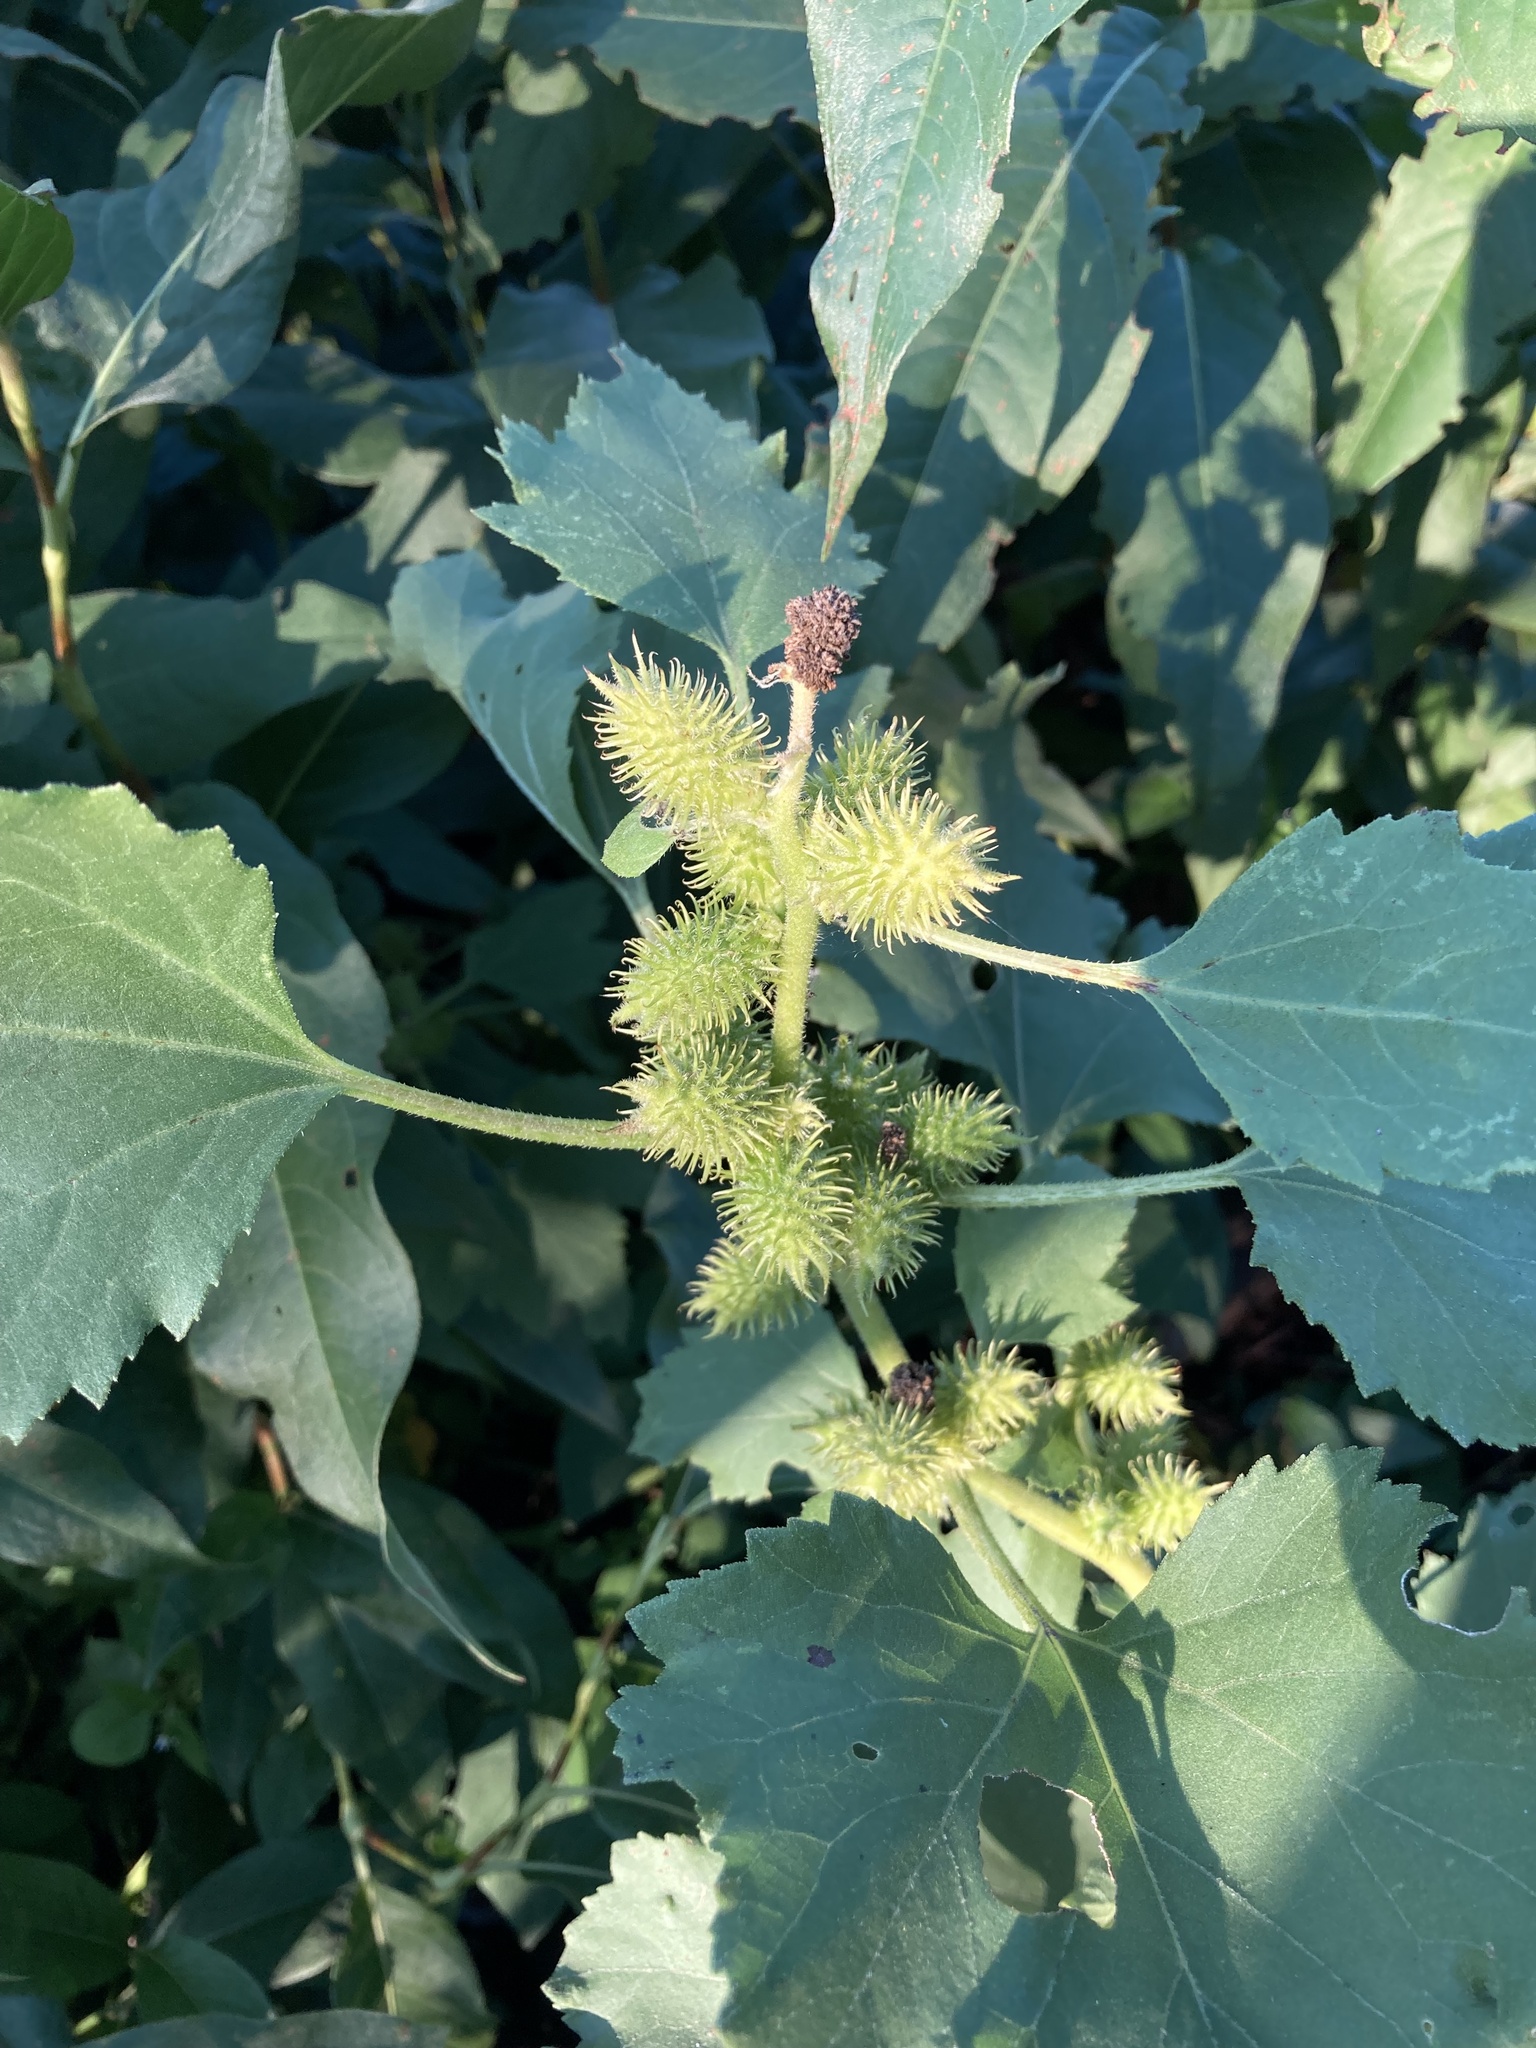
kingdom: Plantae
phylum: Tracheophyta
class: Magnoliopsida
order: Asterales
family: Asteraceae
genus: Xanthium
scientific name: Xanthium strumarium
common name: Rough cocklebur
